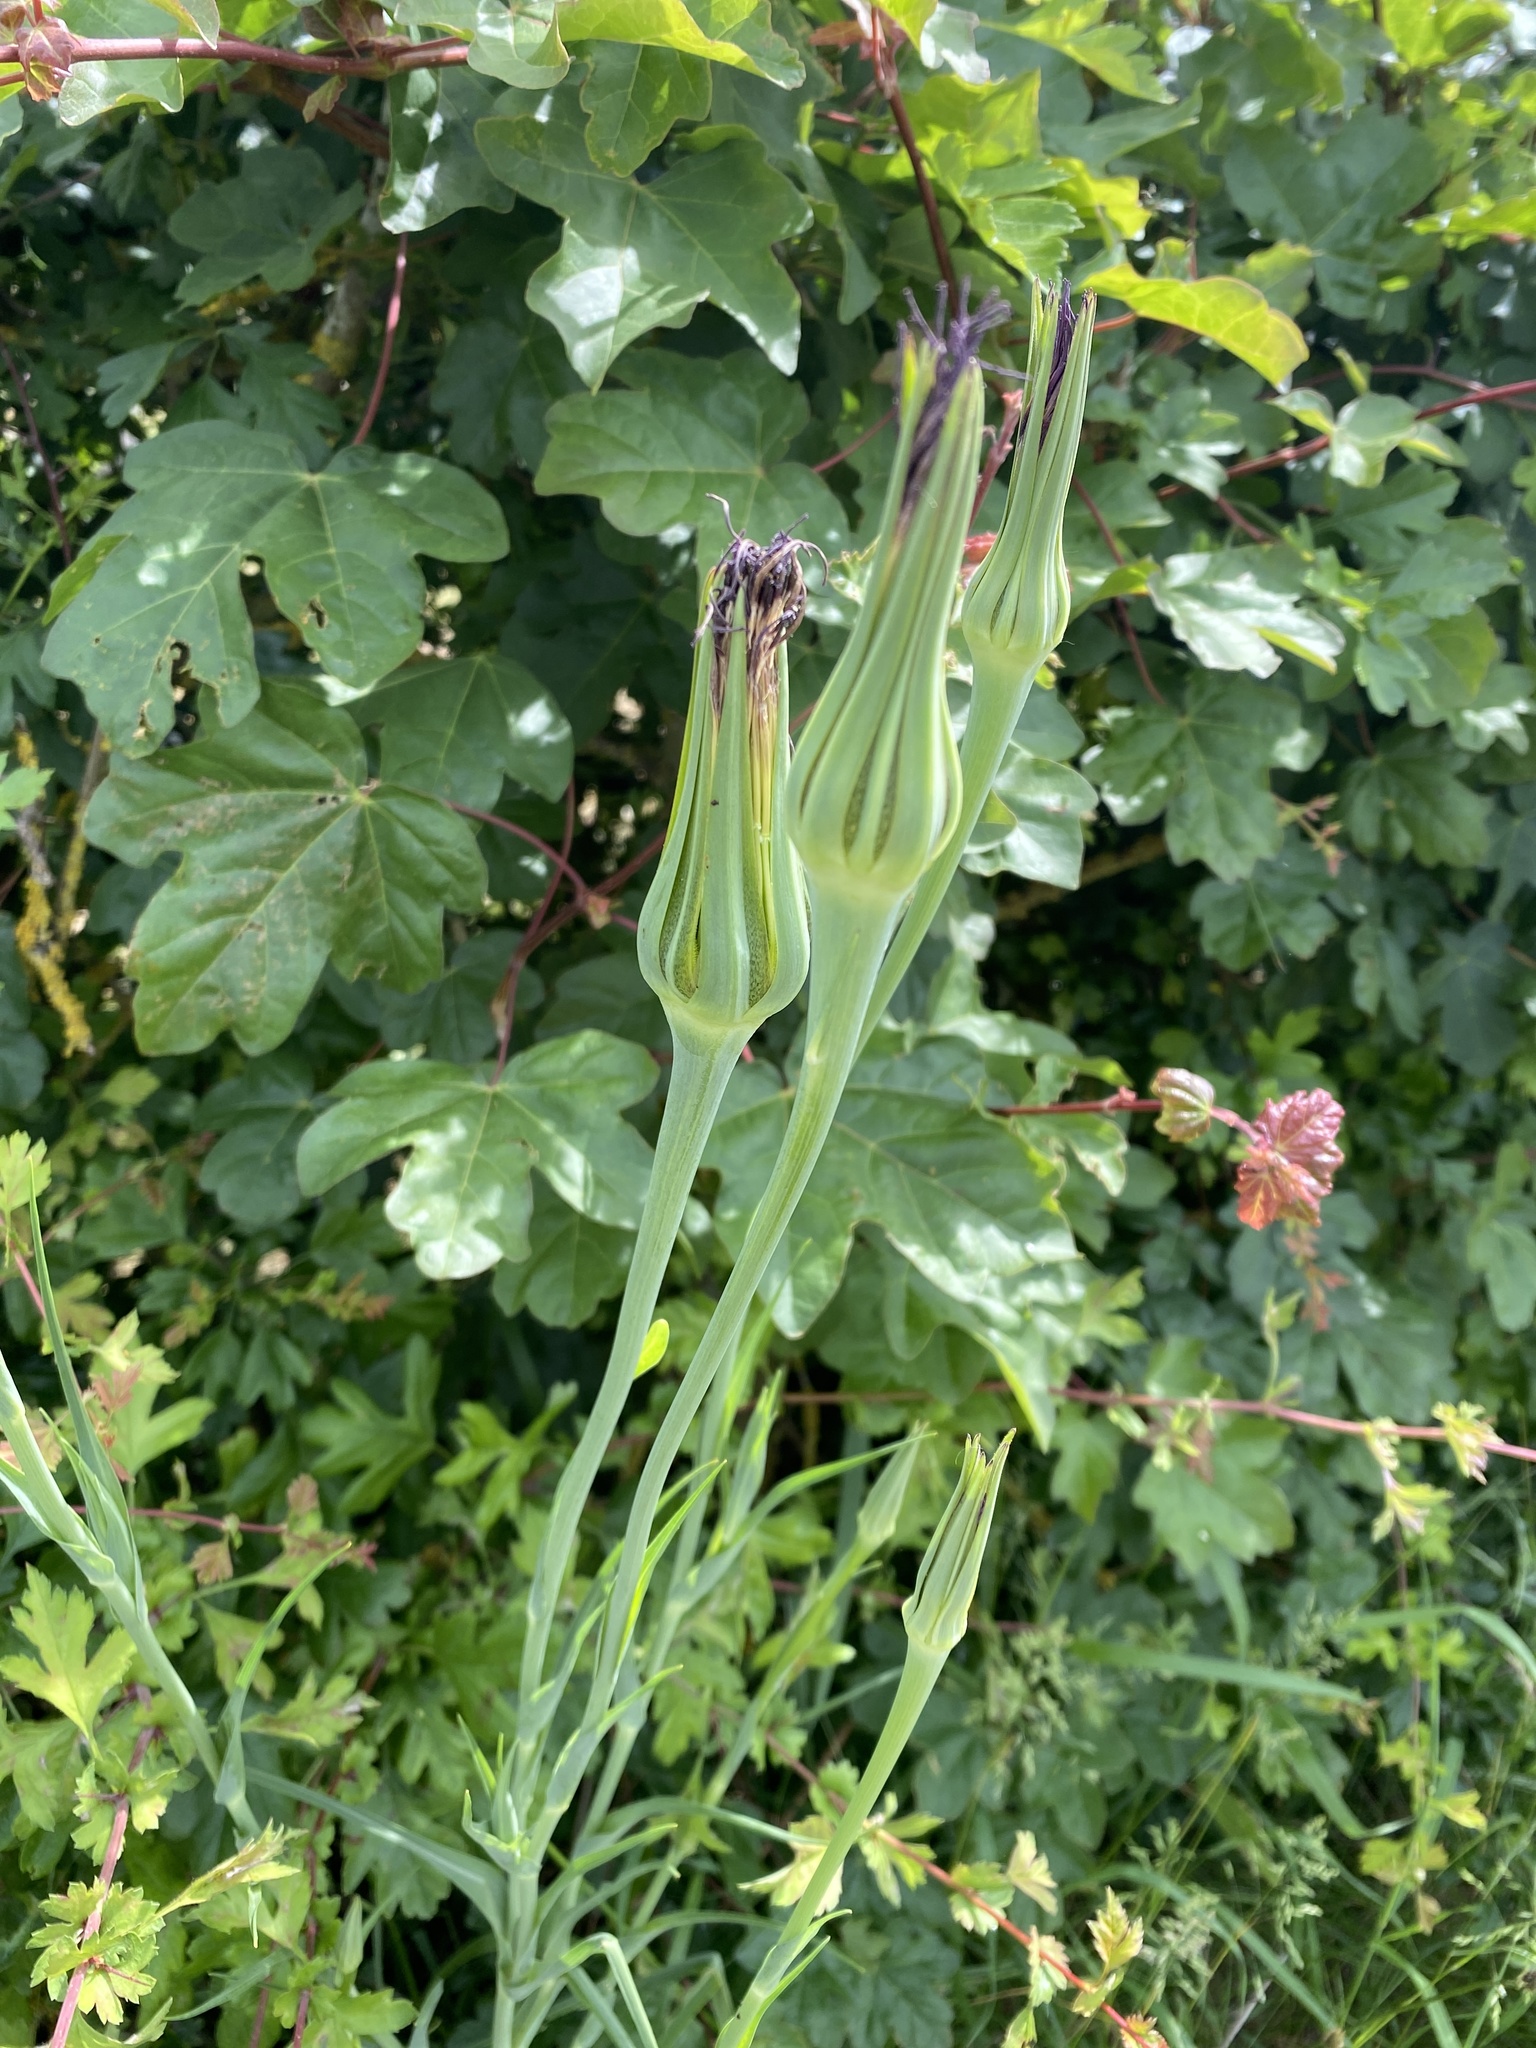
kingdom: Plantae
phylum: Tracheophyta
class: Magnoliopsida
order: Asterales
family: Asteraceae
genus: Tragopogon
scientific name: Tragopogon porrifolius
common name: Salsify
